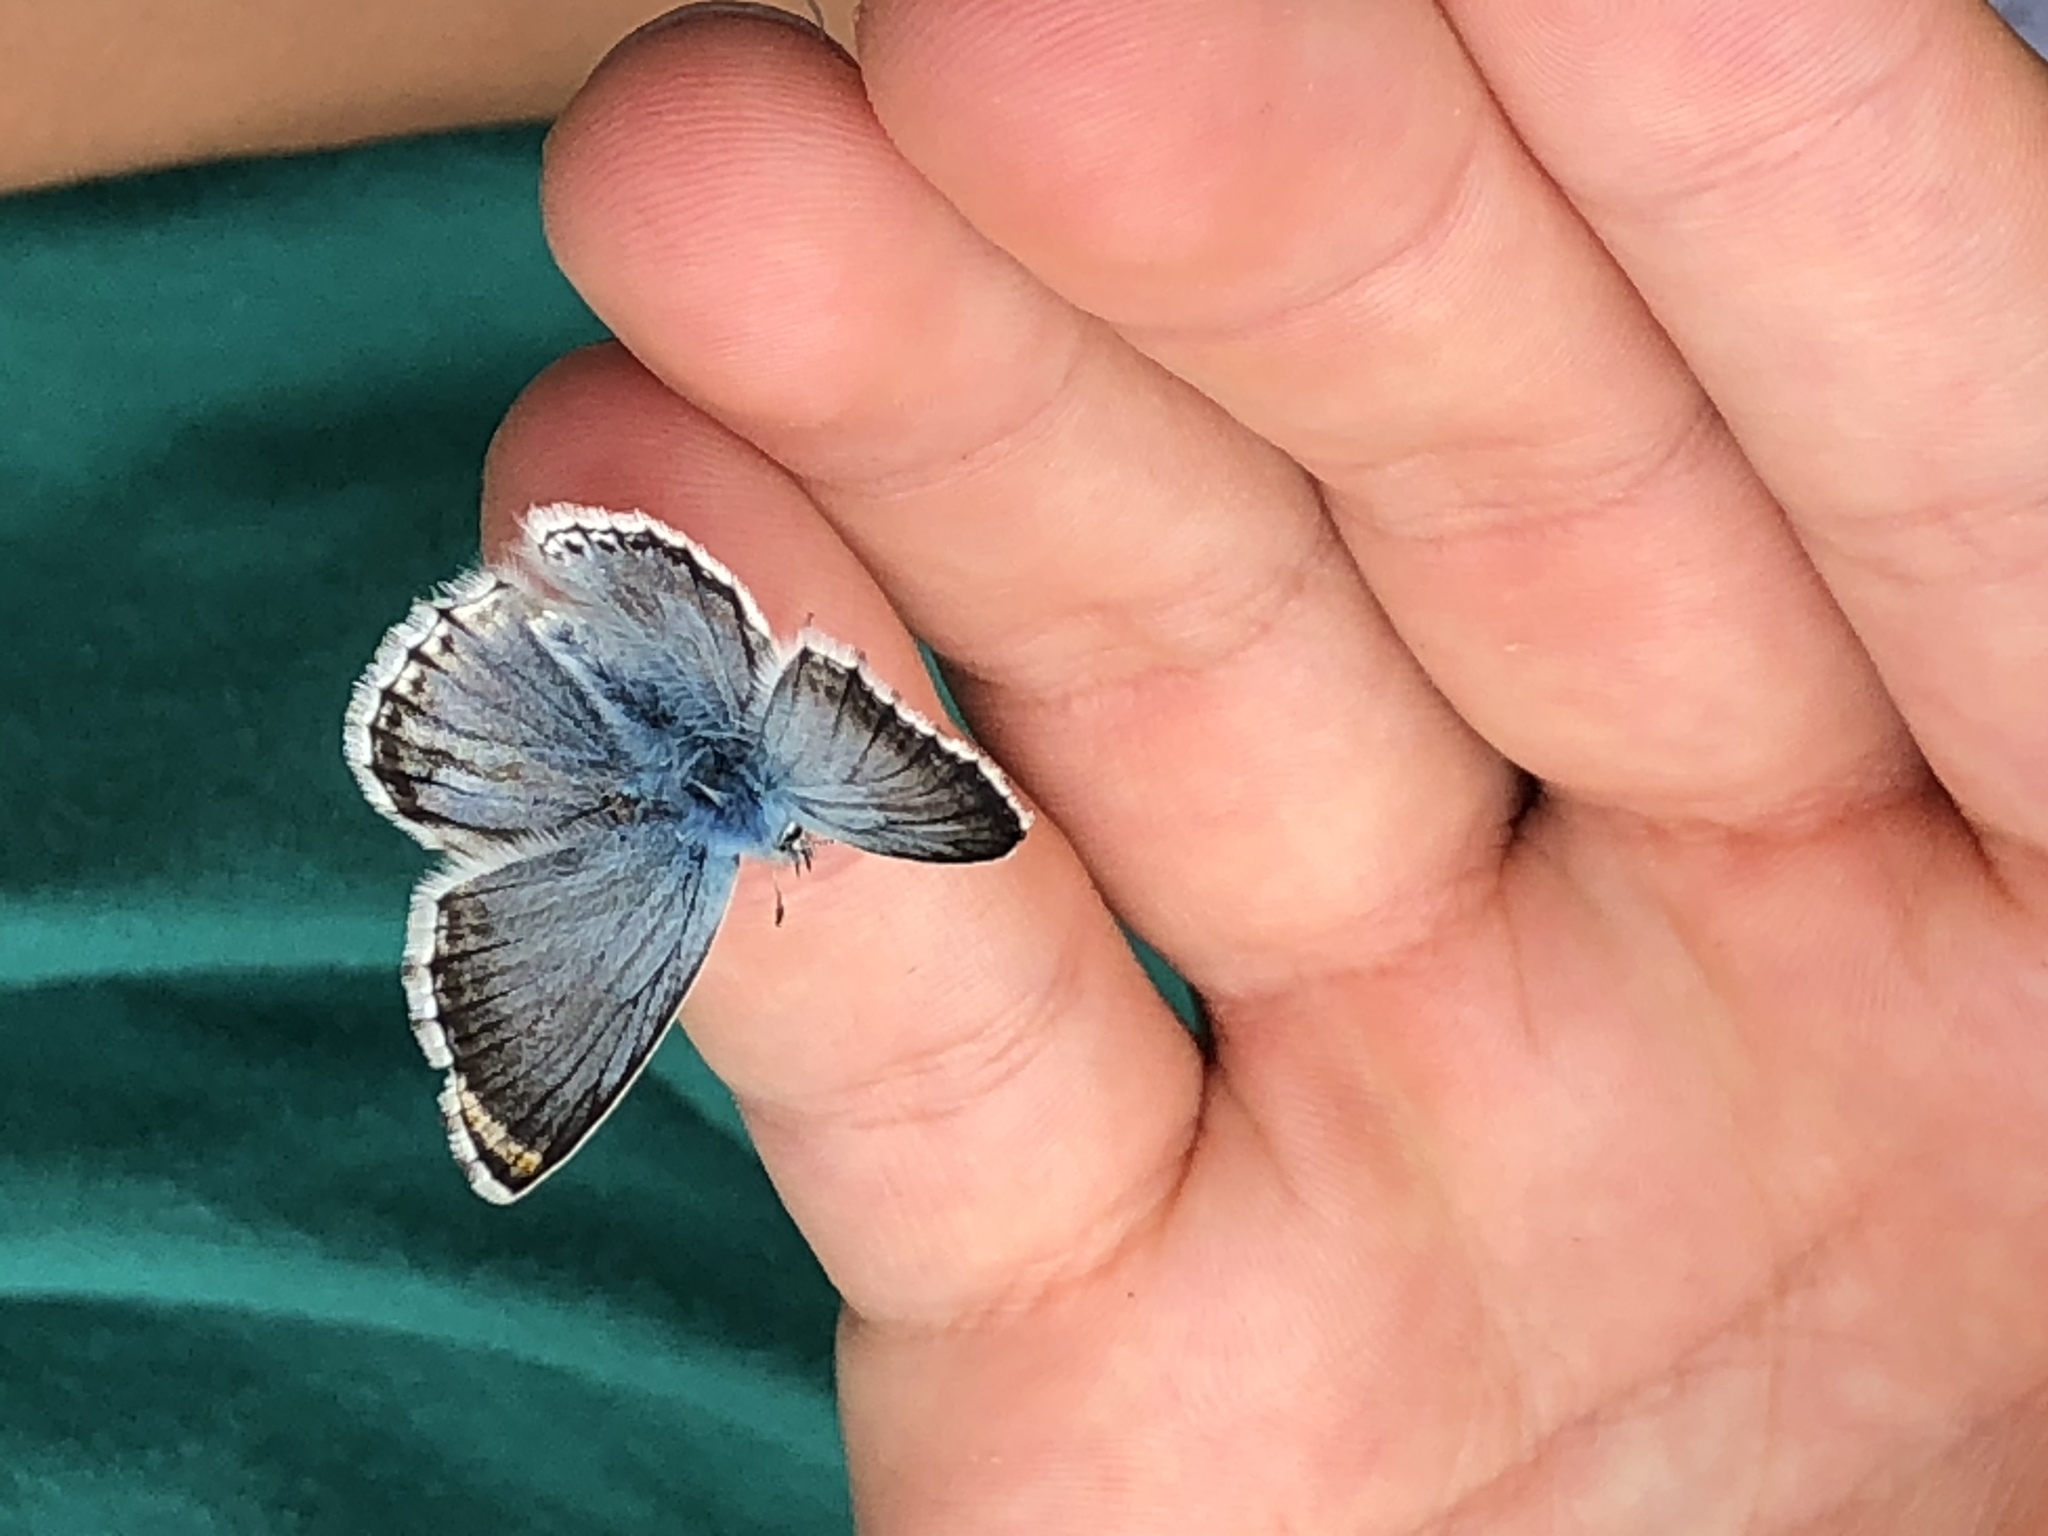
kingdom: Animalia
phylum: Arthropoda
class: Insecta
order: Lepidoptera
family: Lycaenidae
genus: Lysandra
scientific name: Lysandra coridon
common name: Chalkhill blue
